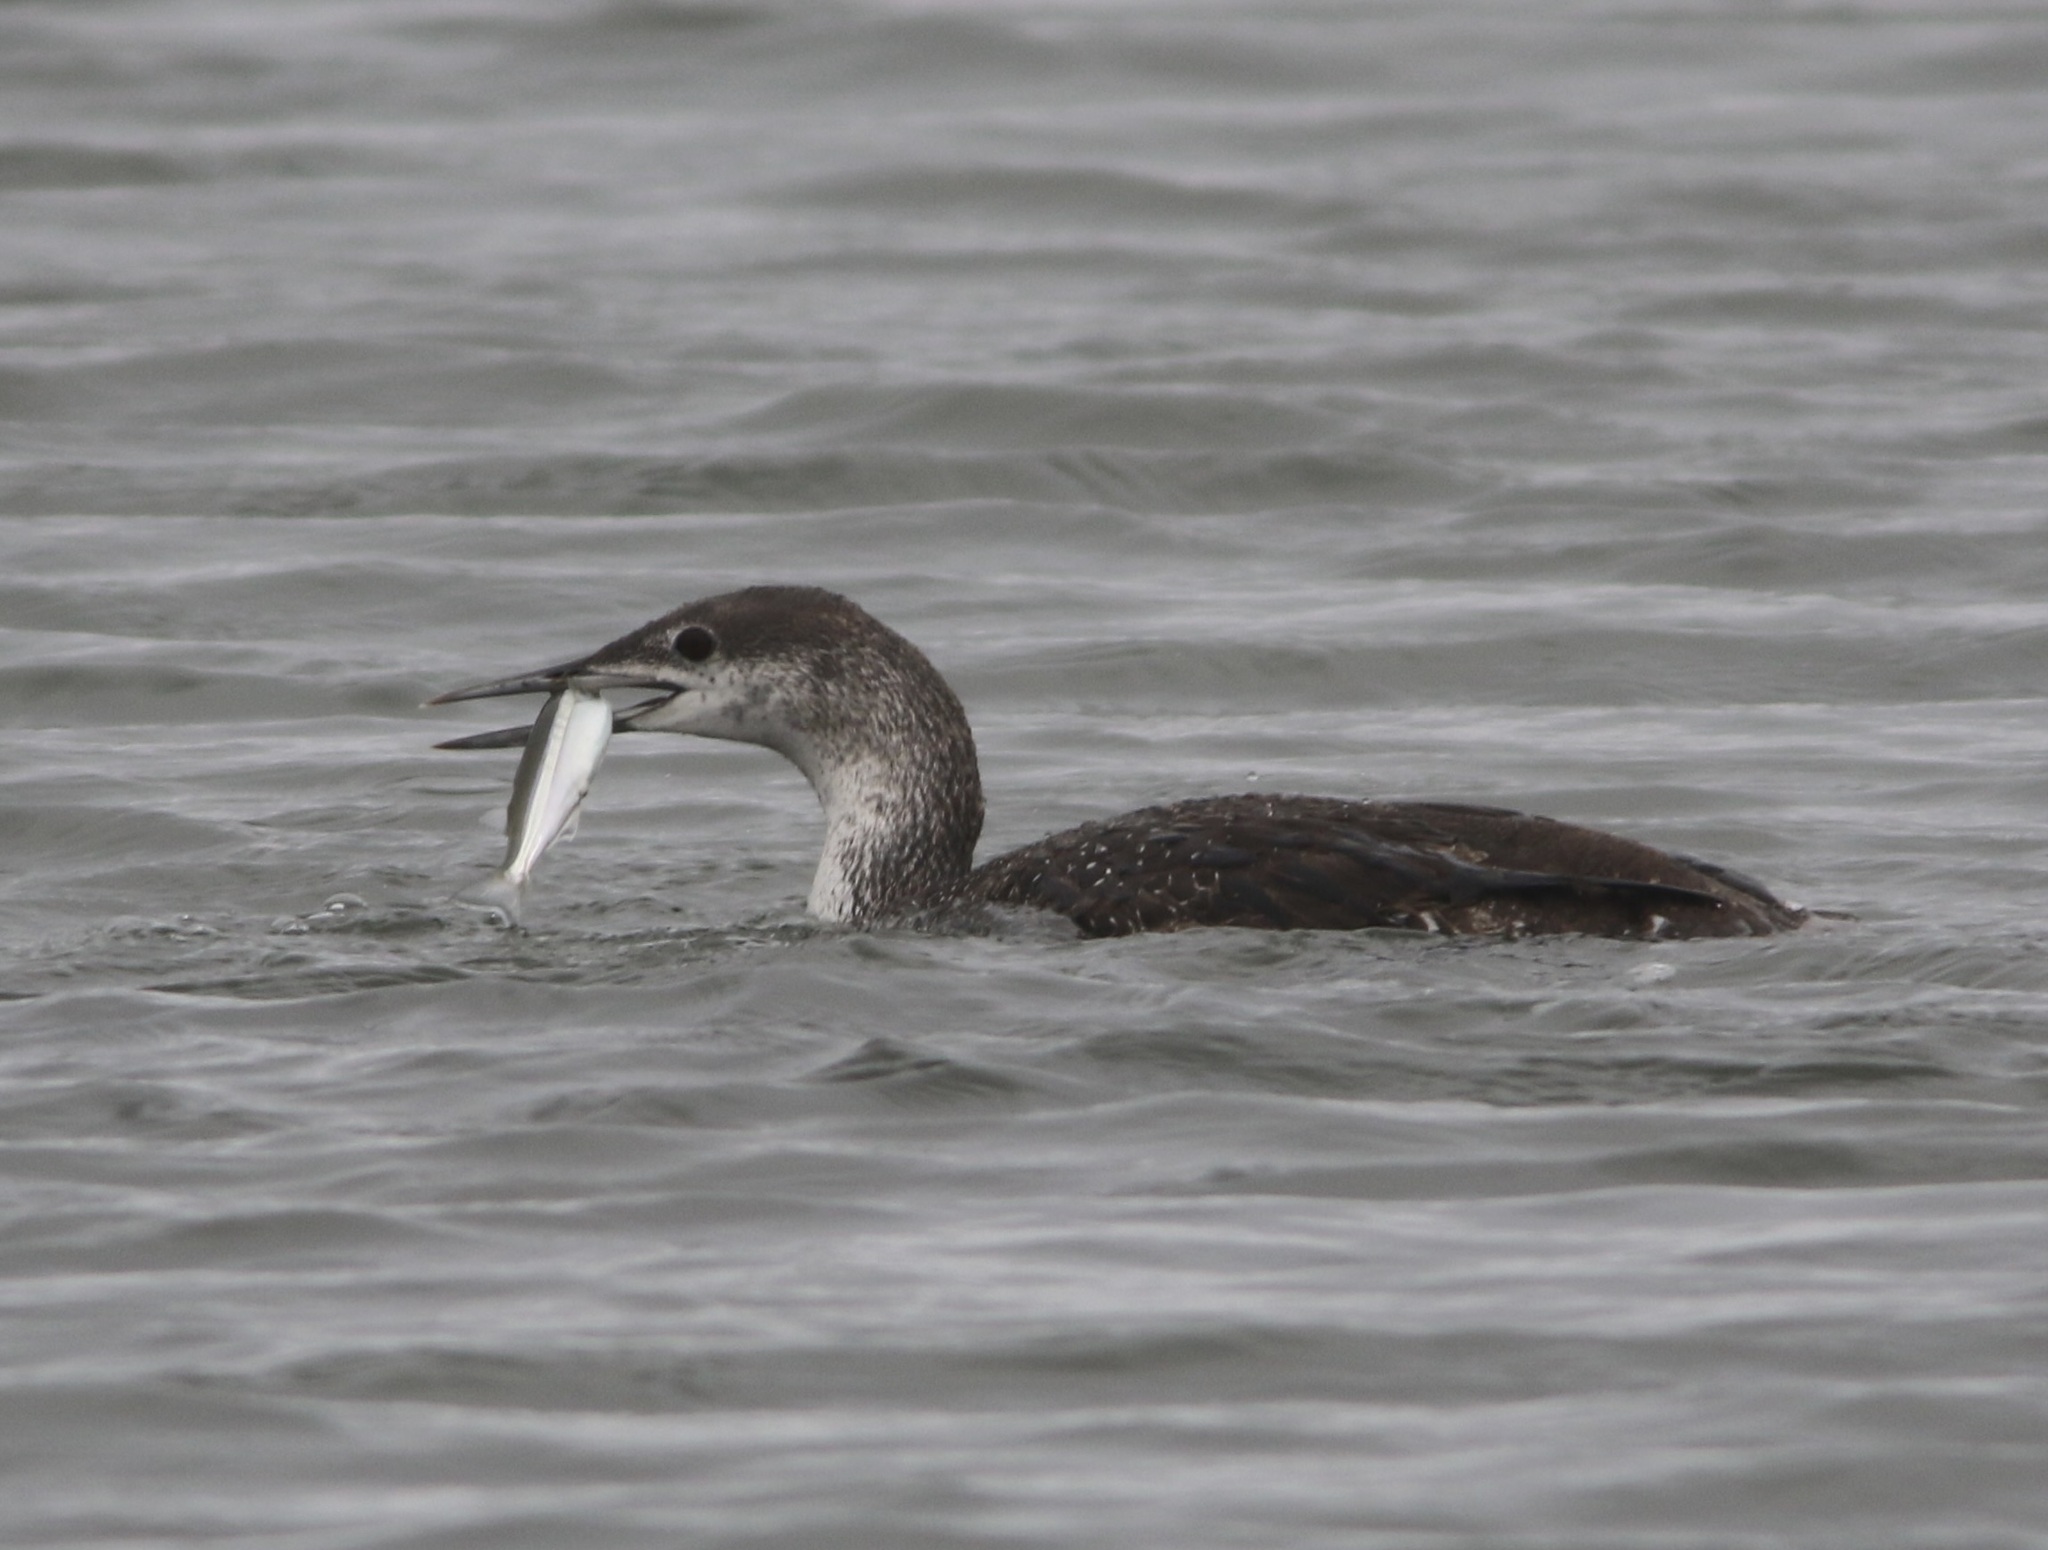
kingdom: Animalia
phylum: Chordata
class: Aves
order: Gaviiformes
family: Gaviidae
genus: Gavia
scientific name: Gavia stellata
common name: Red-throated loon
